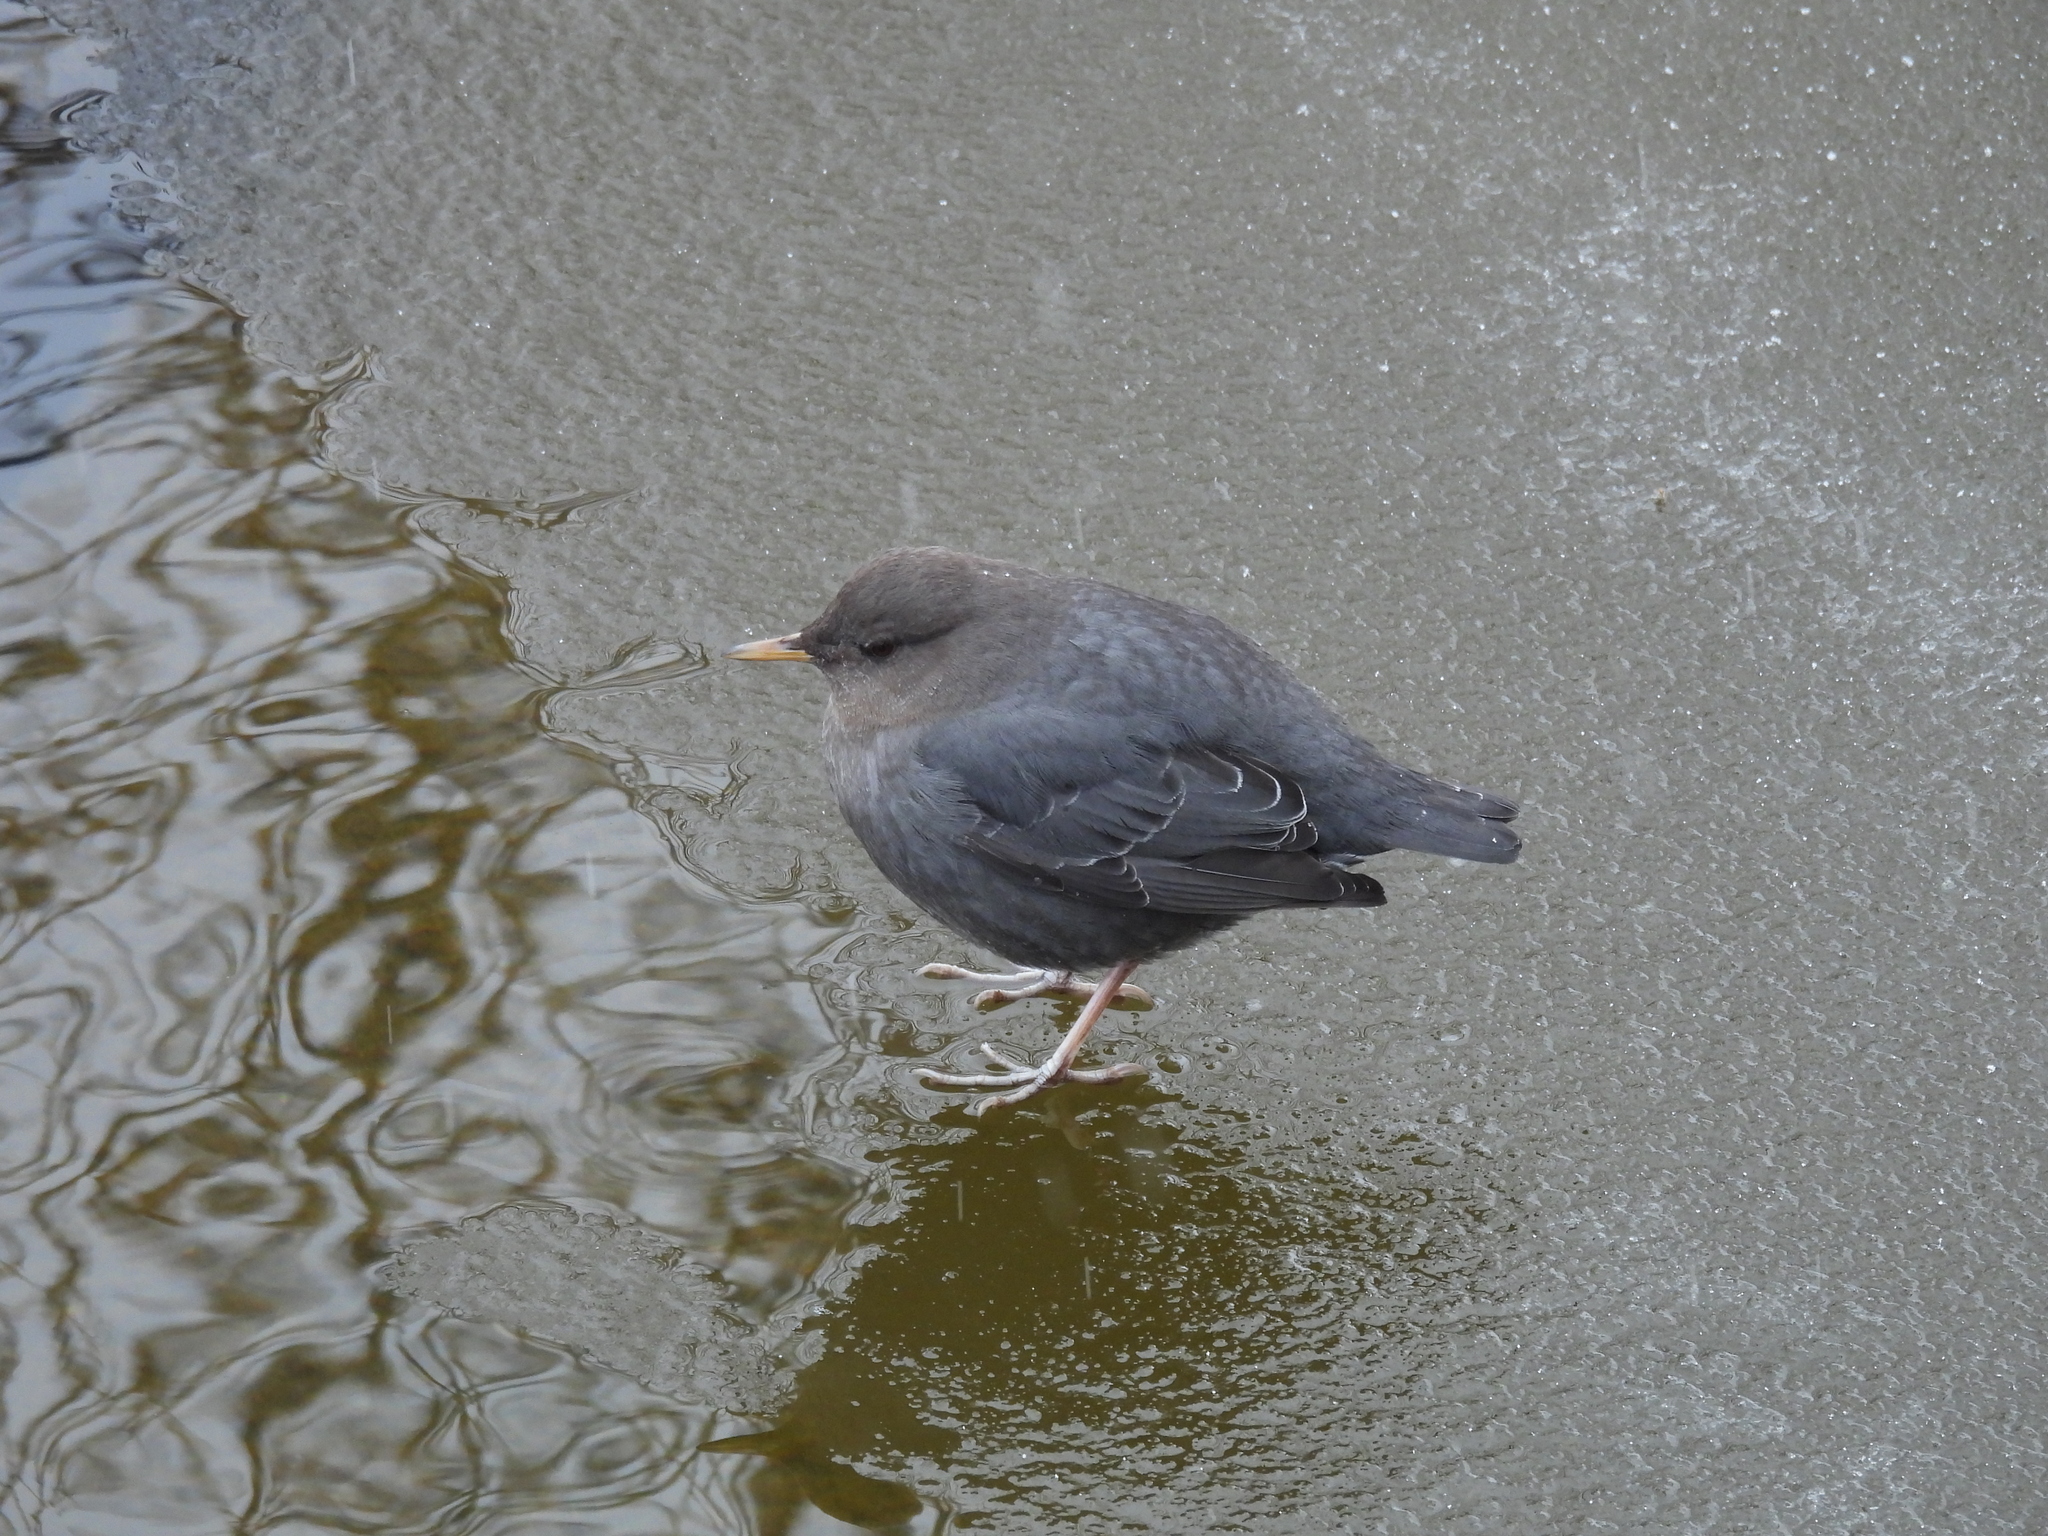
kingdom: Animalia
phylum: Chordata
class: Aves
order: Passeriformes
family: Cinclidae
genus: Cinclus
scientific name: Cinclus mexicanus
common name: American dipper
